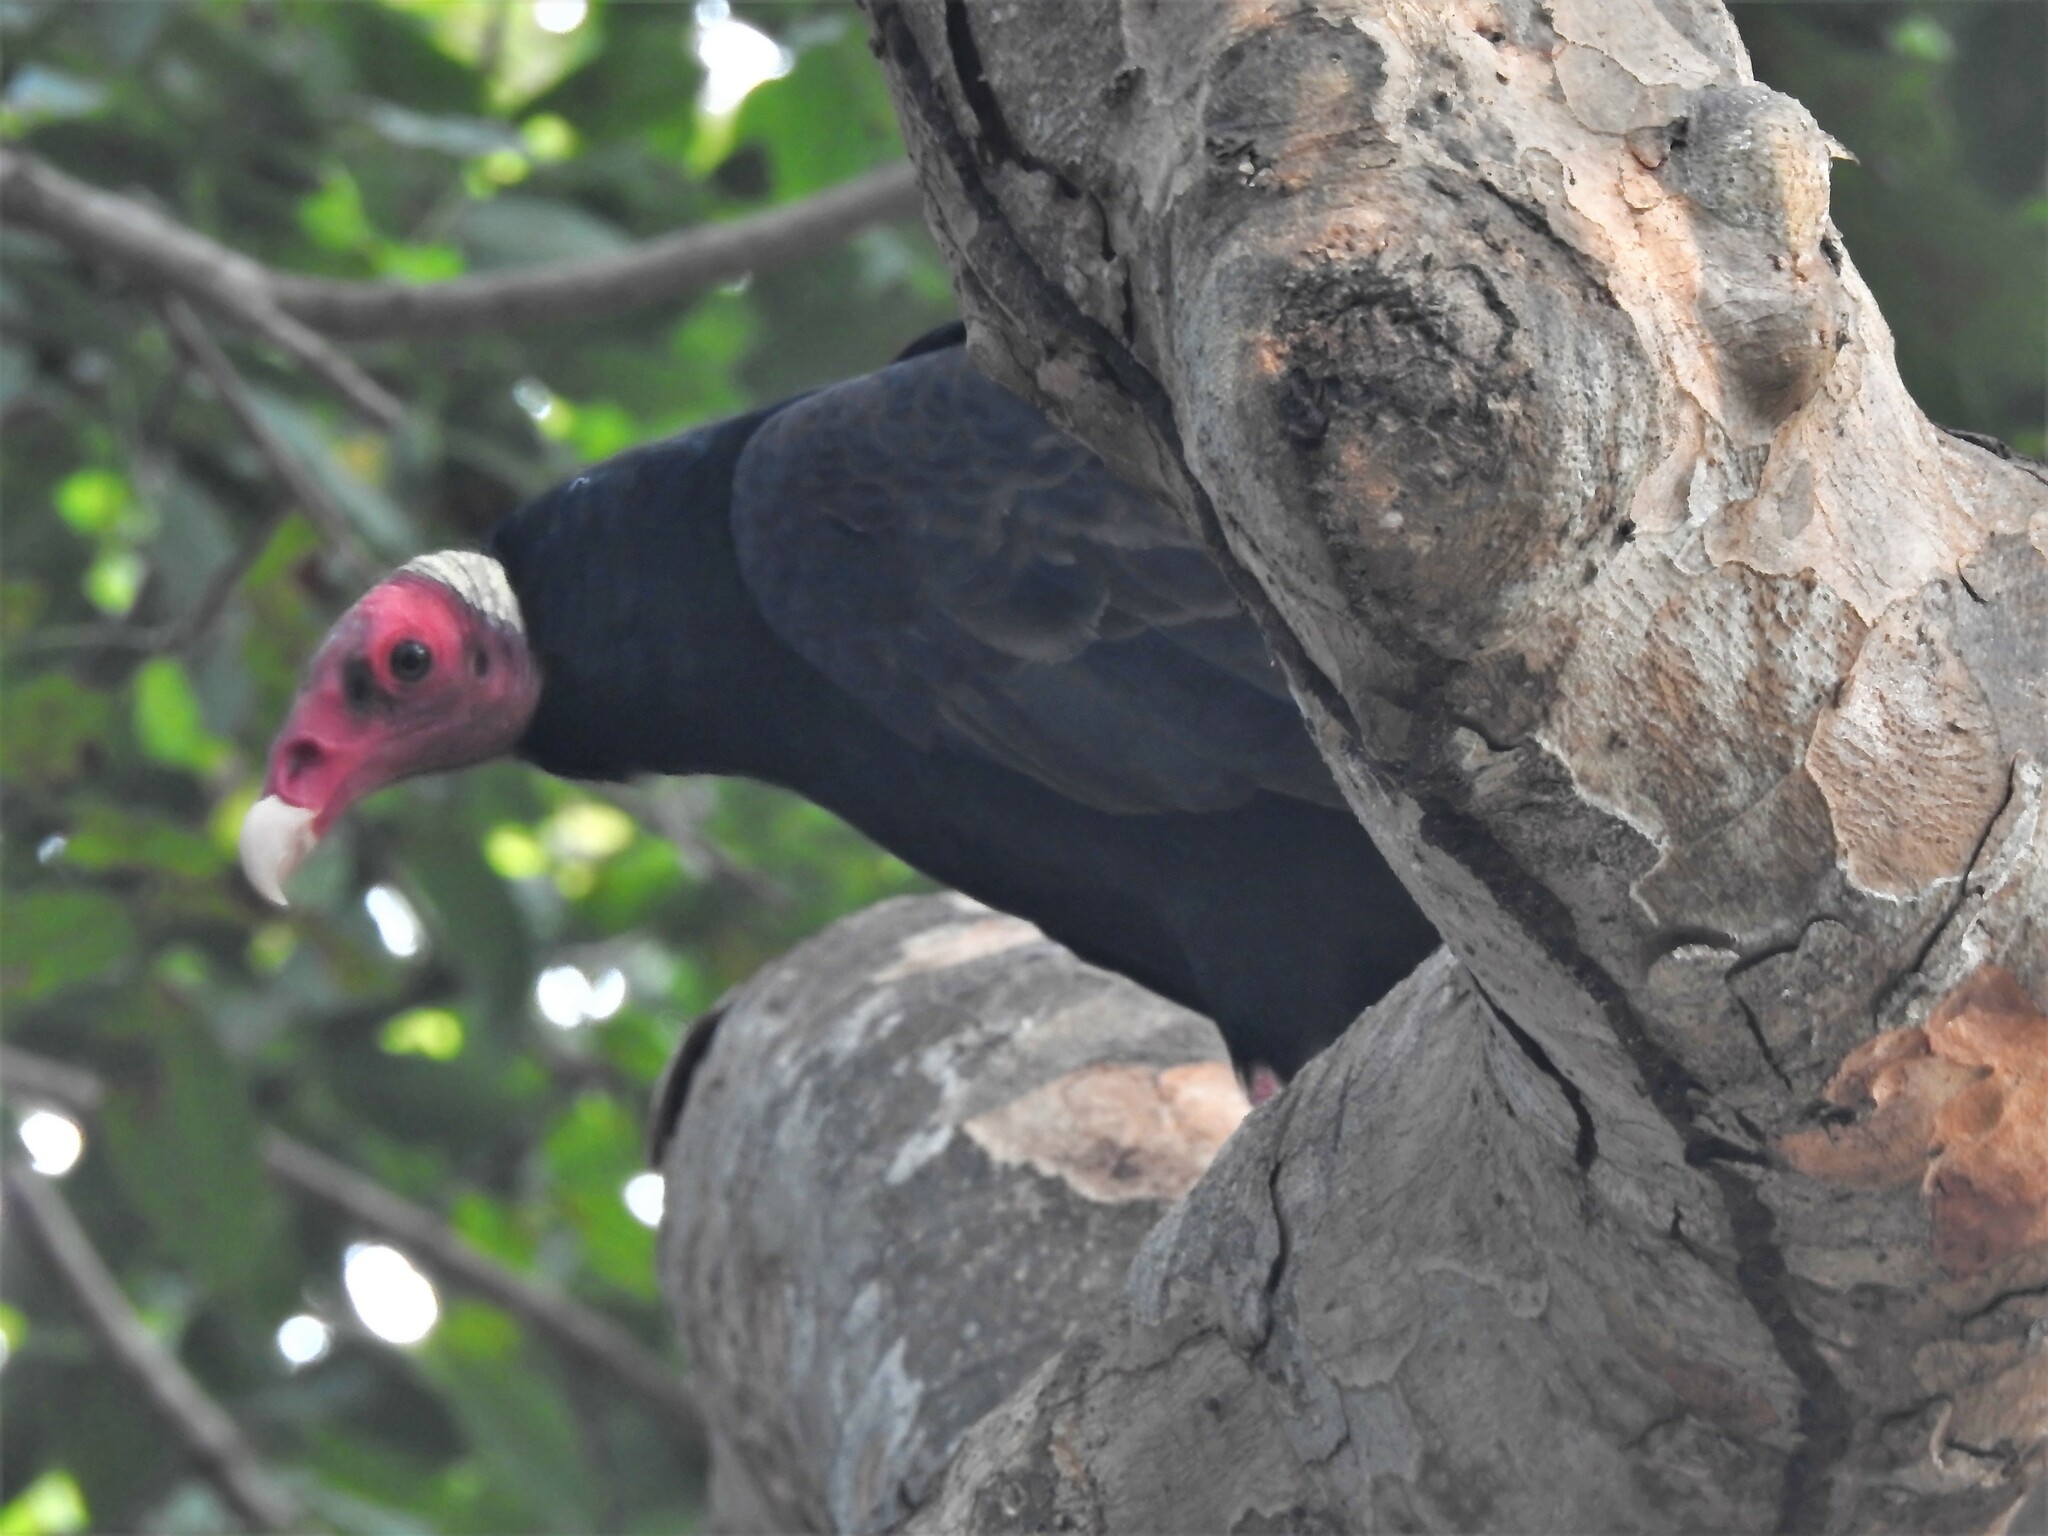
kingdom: Animalia
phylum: Chordata
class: Aves
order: Accipitriformes
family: Cathartidae
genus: Cathartes
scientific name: Cathartes aura
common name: Turkey vulture
